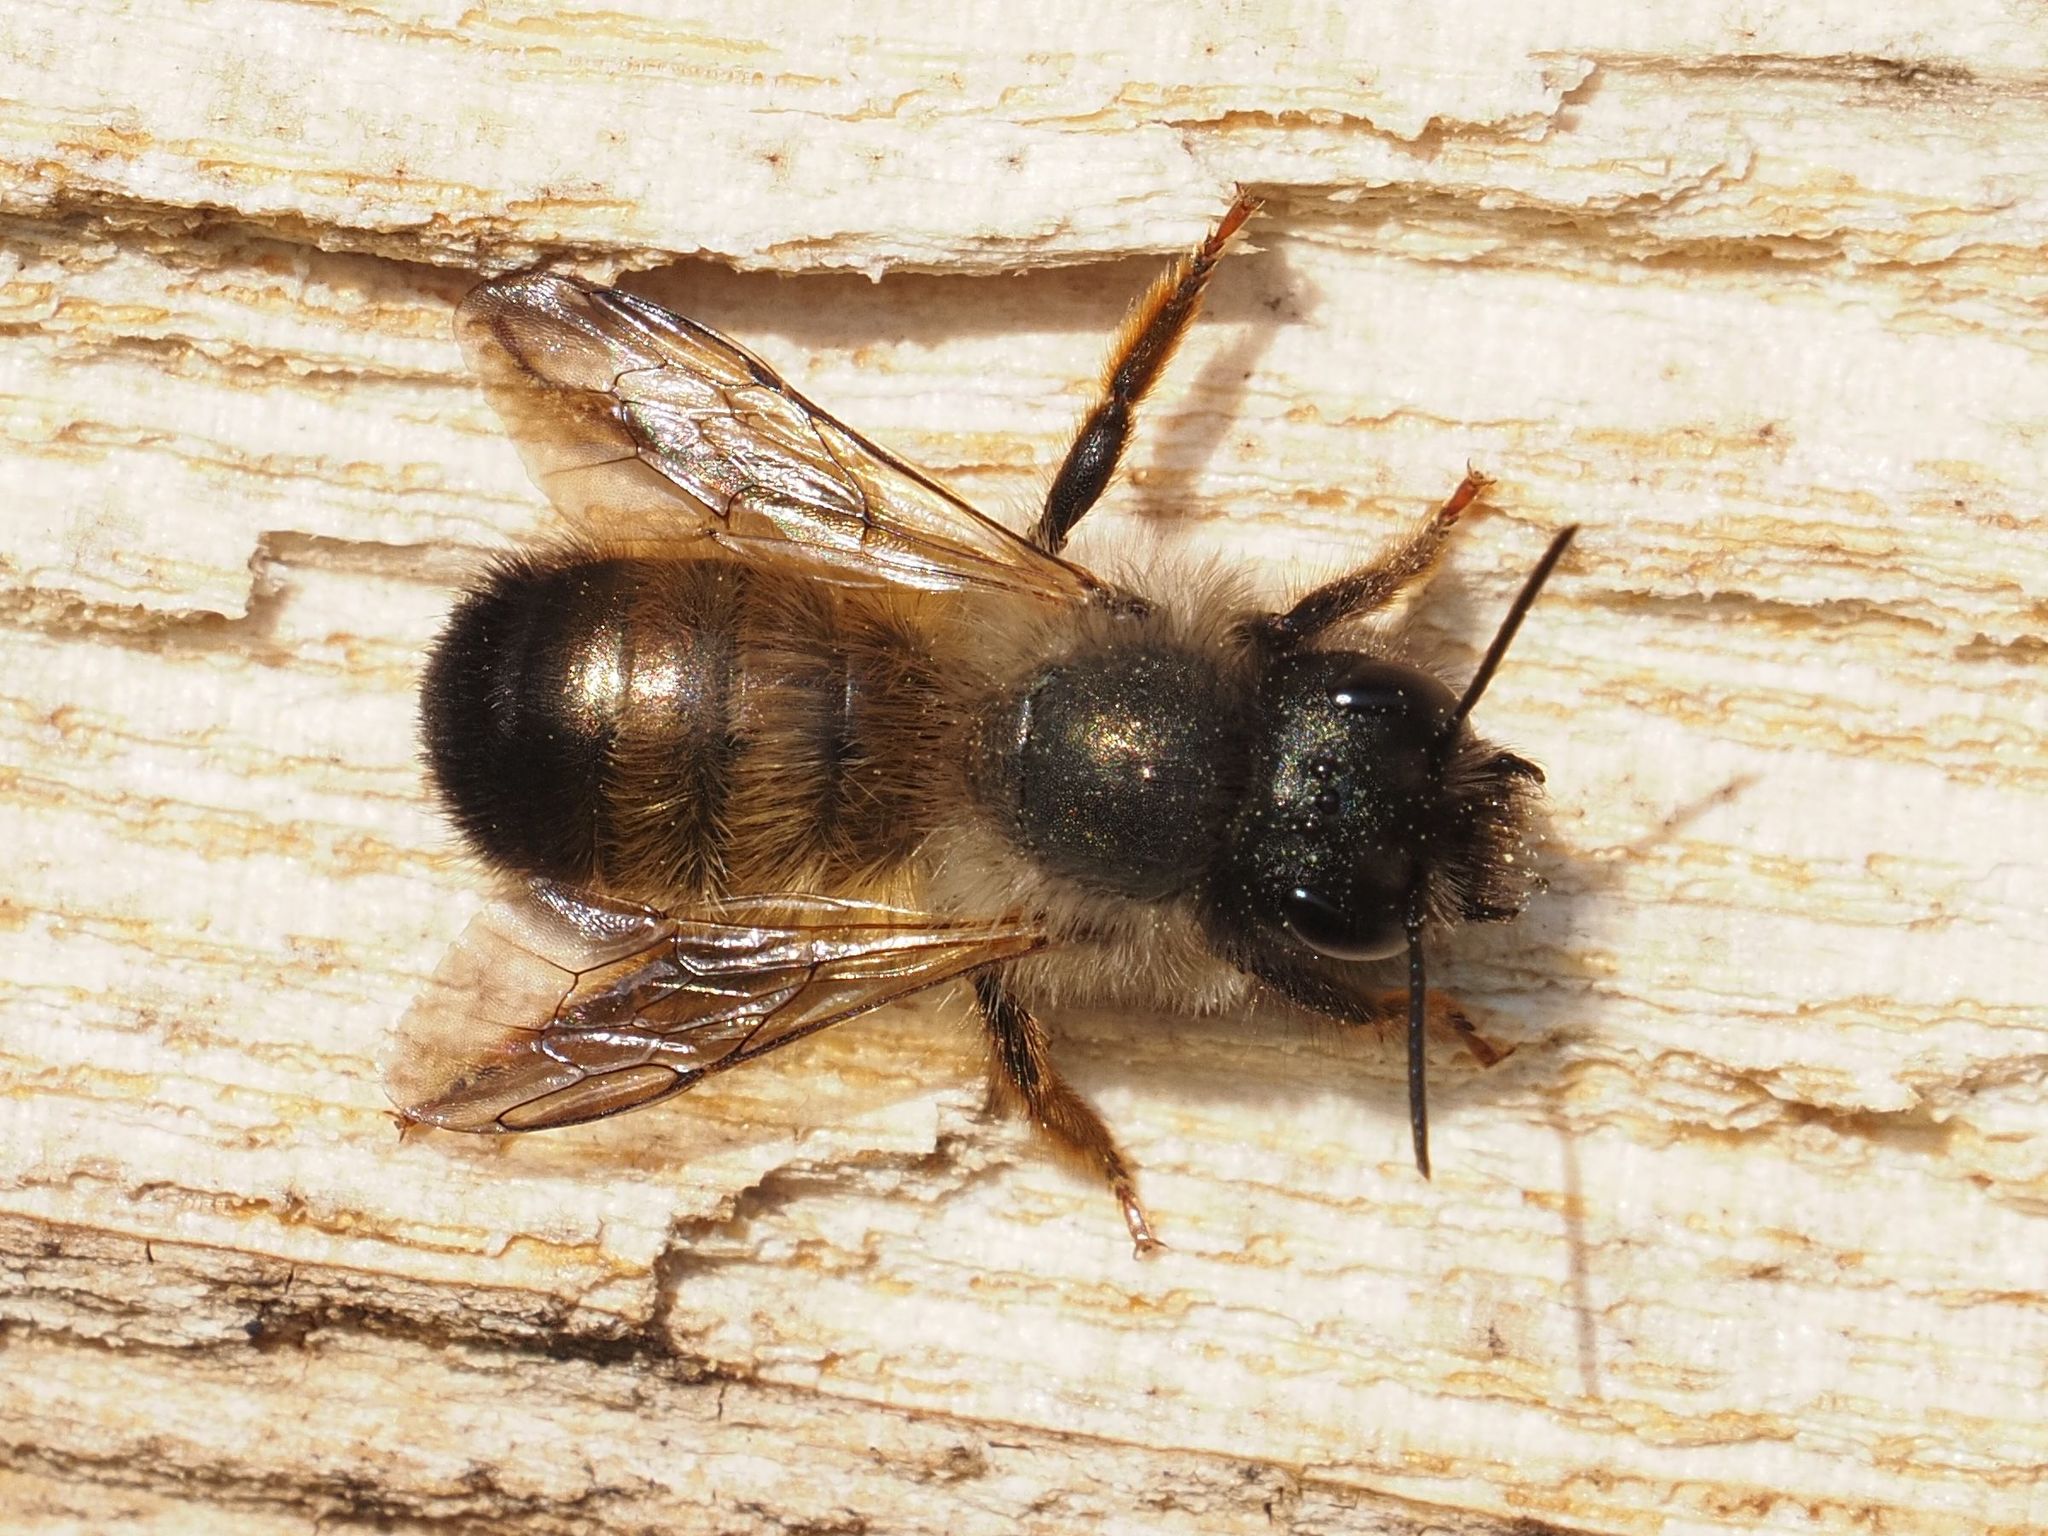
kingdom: Animalia
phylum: Arthropoda
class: Insecta
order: Hymenoptera
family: Megachilidae
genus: Osmia
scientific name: Osmia bicornis
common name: Red mason bee
